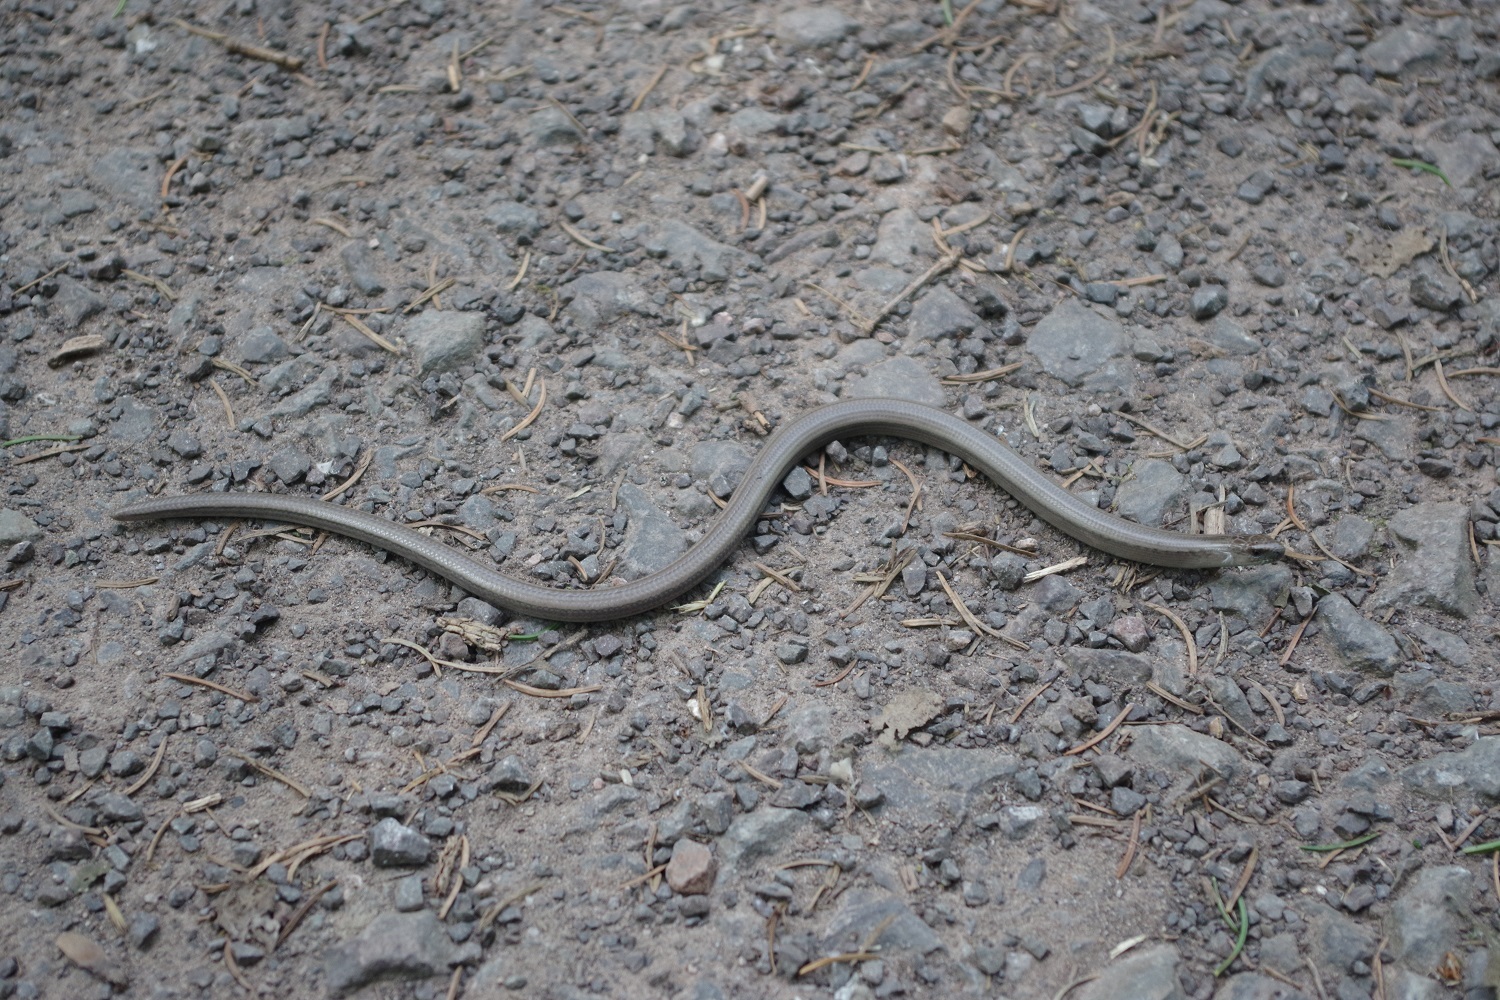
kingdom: Animalia
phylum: Chordata
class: Squamata
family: Anguidae
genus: Anguis
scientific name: Anguis fragilis
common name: Slow worm
